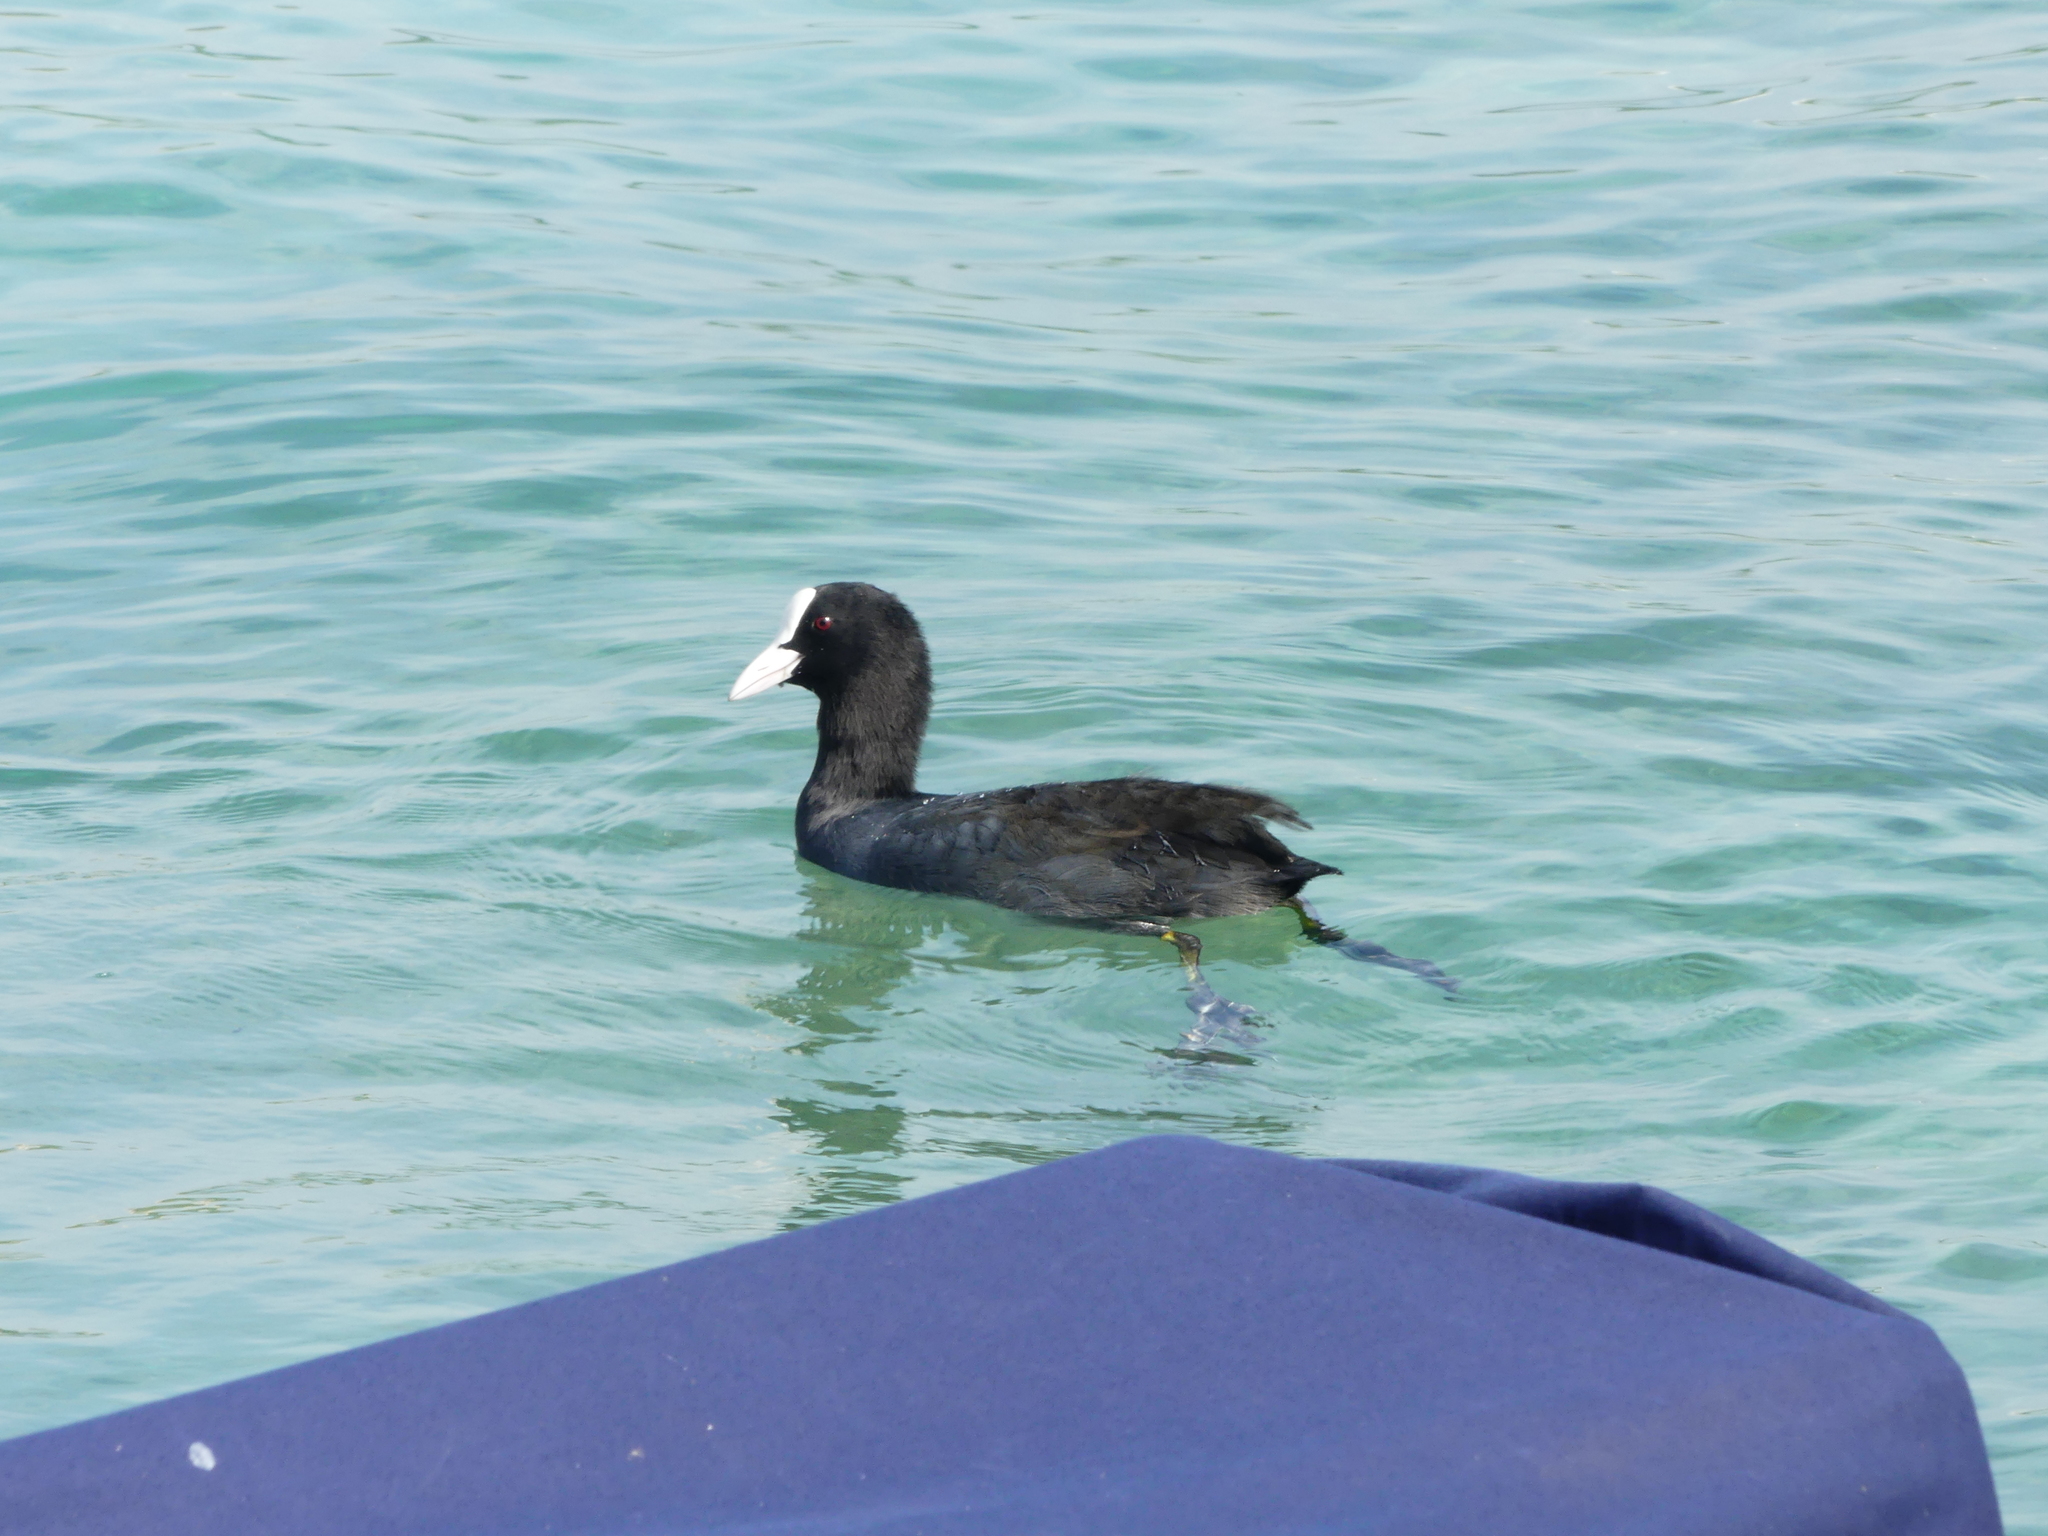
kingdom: Animalia
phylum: Chordata
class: Aves
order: Gruiformes
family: Rallidae
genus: Fulica
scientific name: Fulica atra
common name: Eurasian coot
